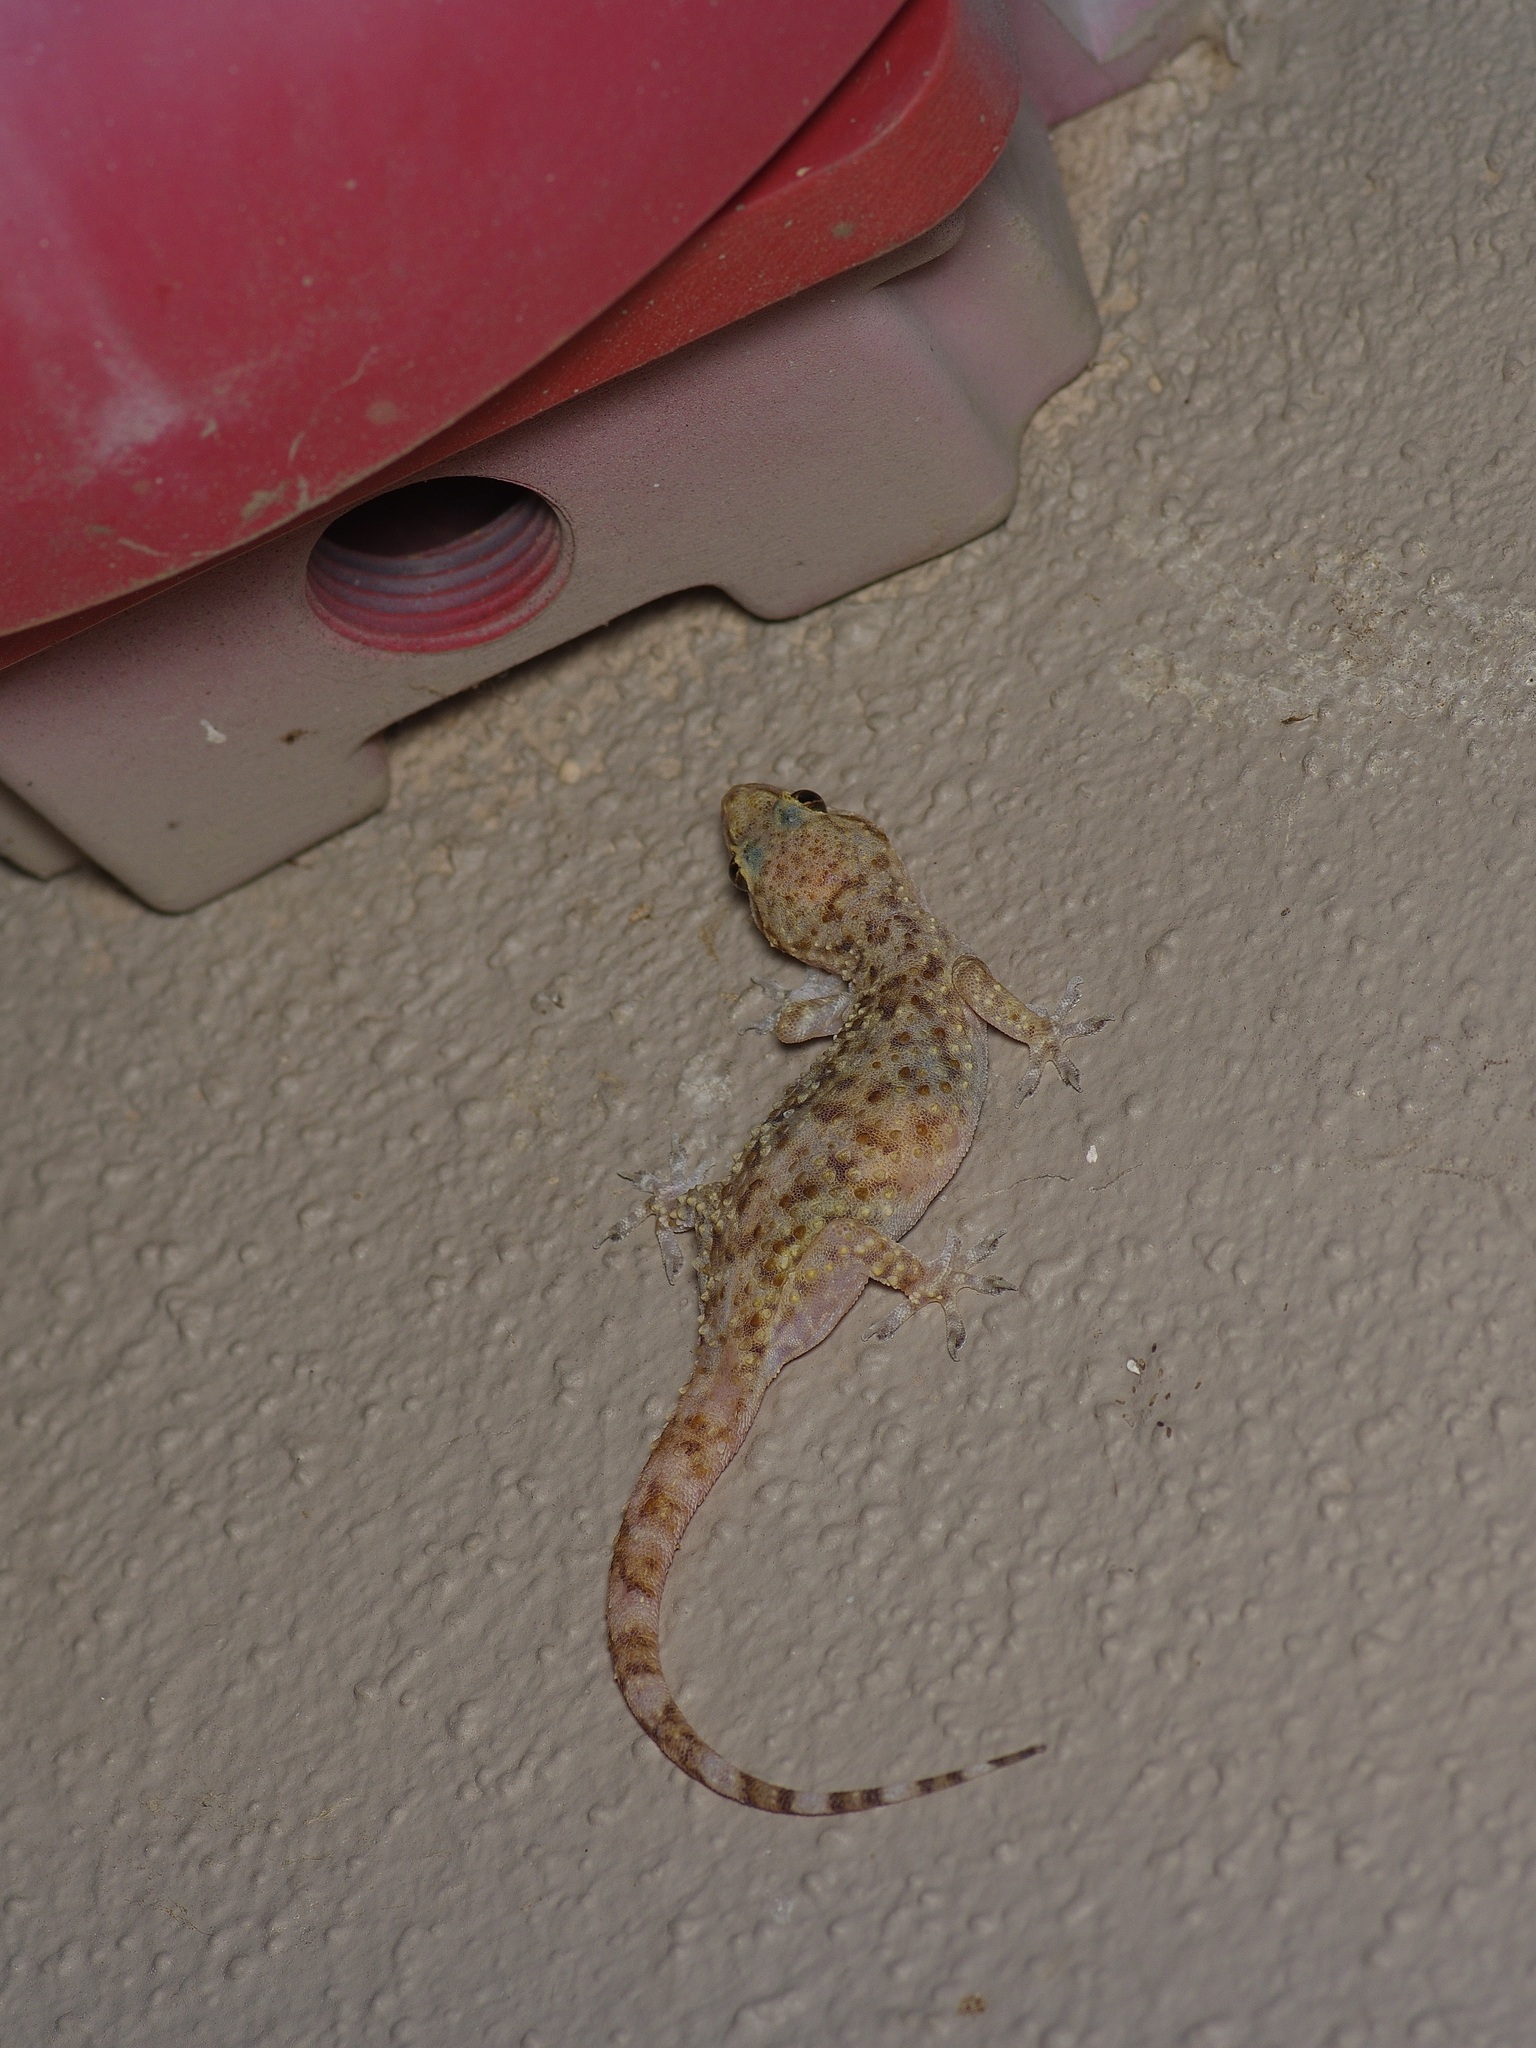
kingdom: Animalia
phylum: Chordata
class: Squamata
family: Gekkonidae
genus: Hemidactylus
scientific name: Hemidactylus turcicus
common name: Turkish gecko
